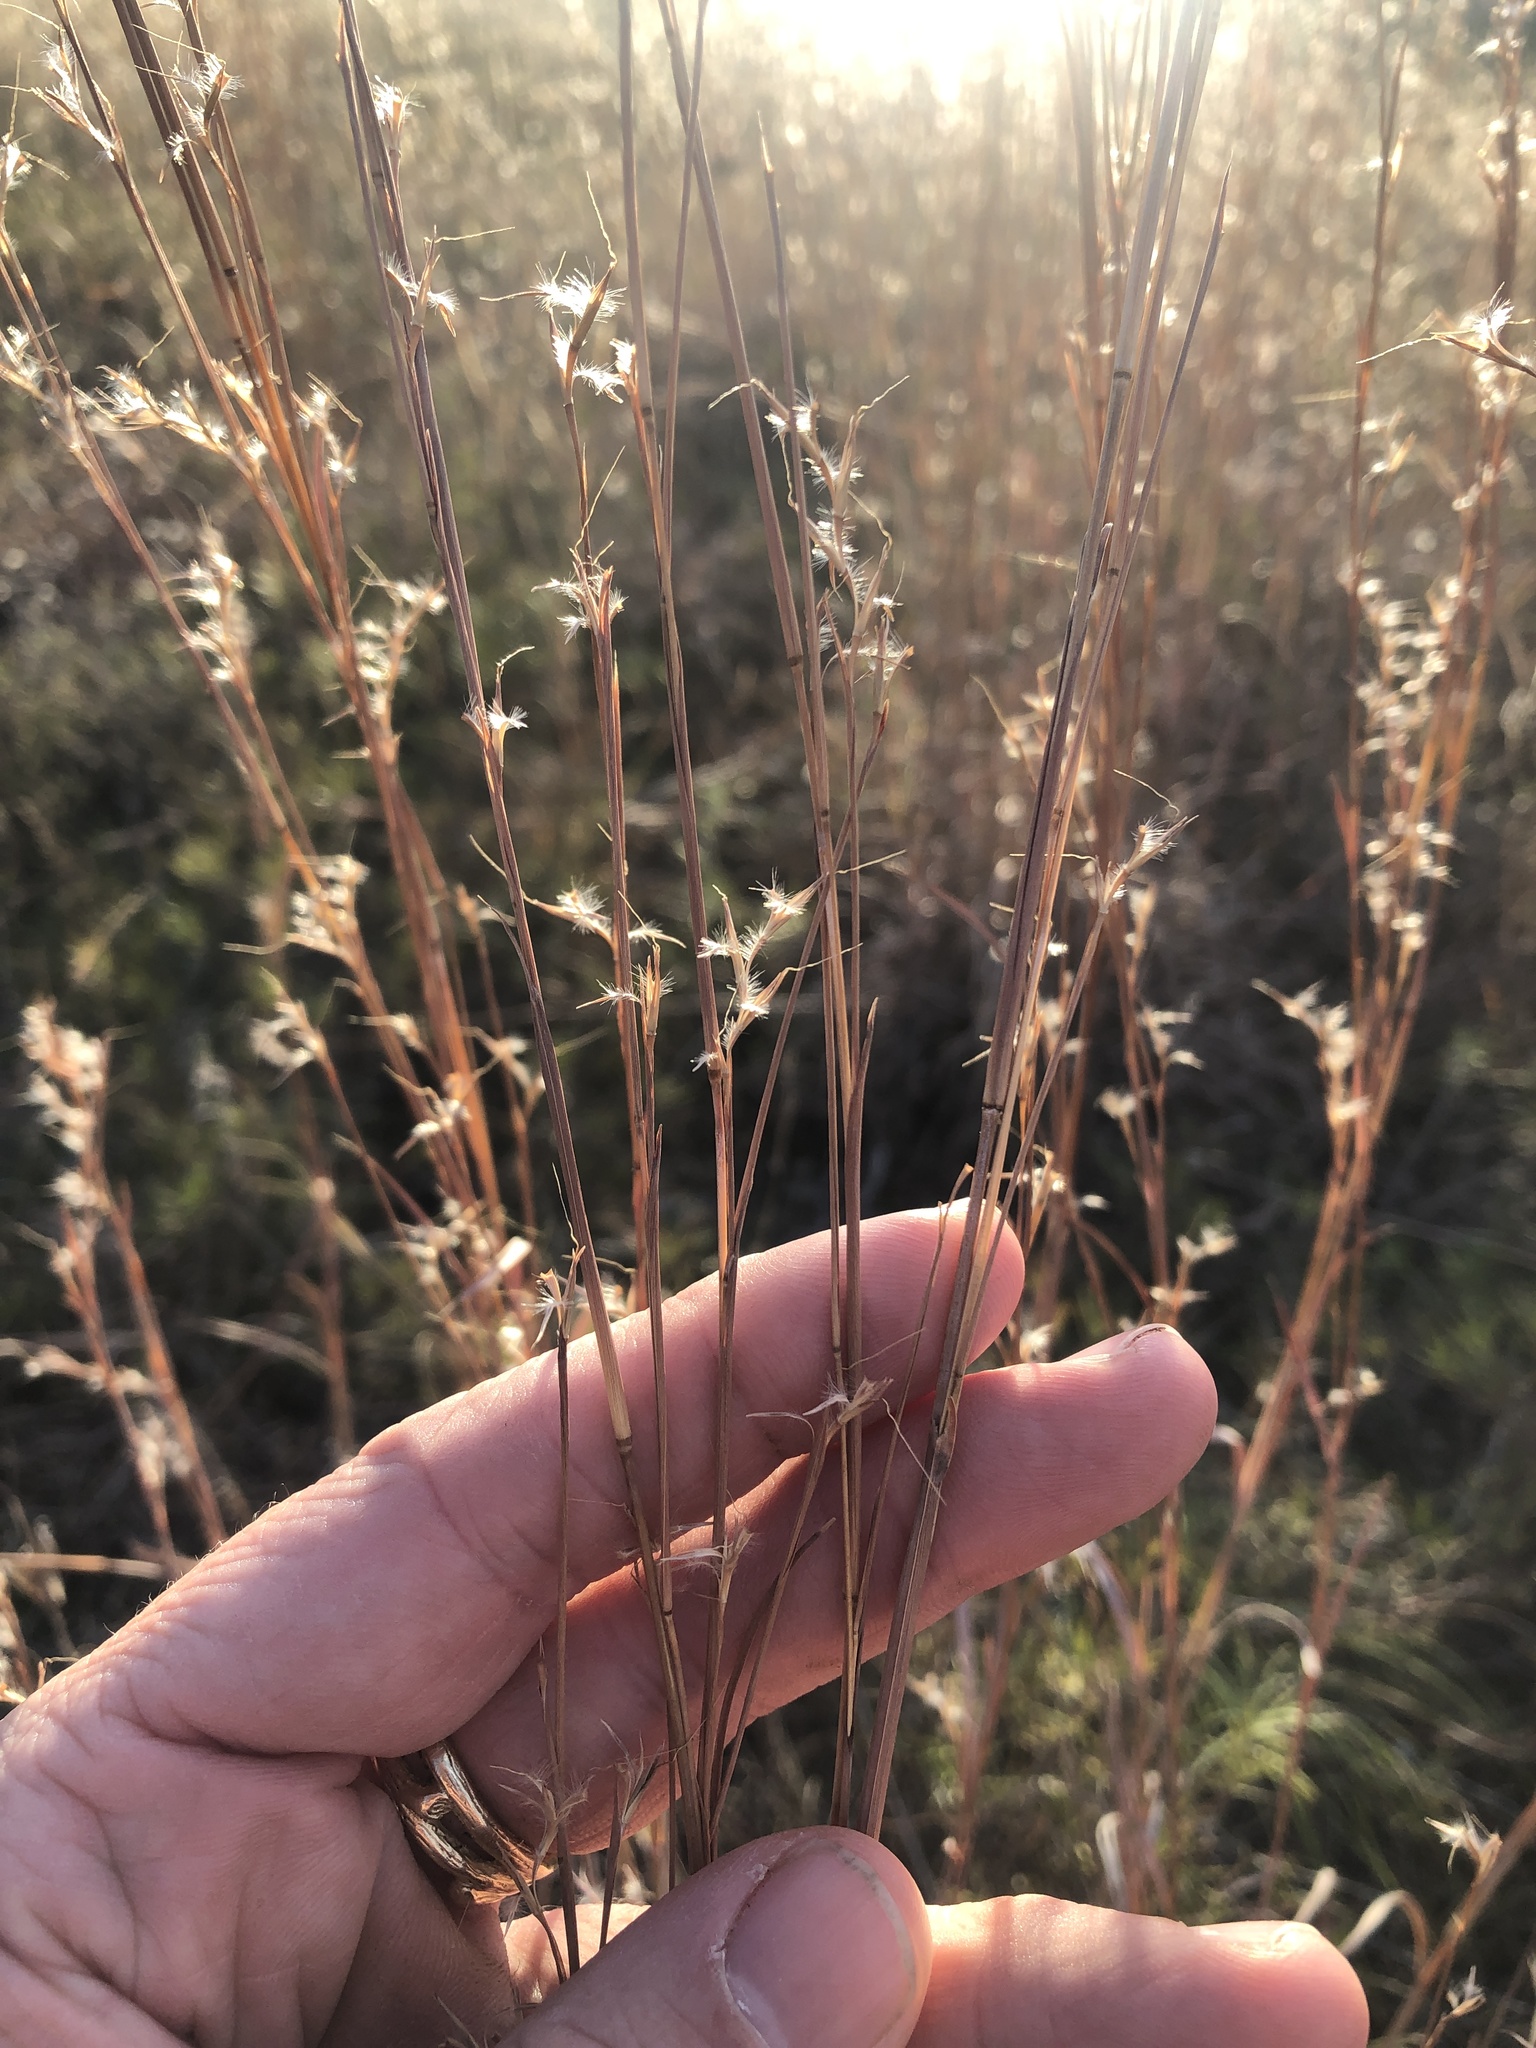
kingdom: Plantae
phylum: Tracheophyta
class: Liliopsida
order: Poales
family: Poaceae
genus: Schizachyrium
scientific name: Schizachyrium scoparium
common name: Little bluestem
